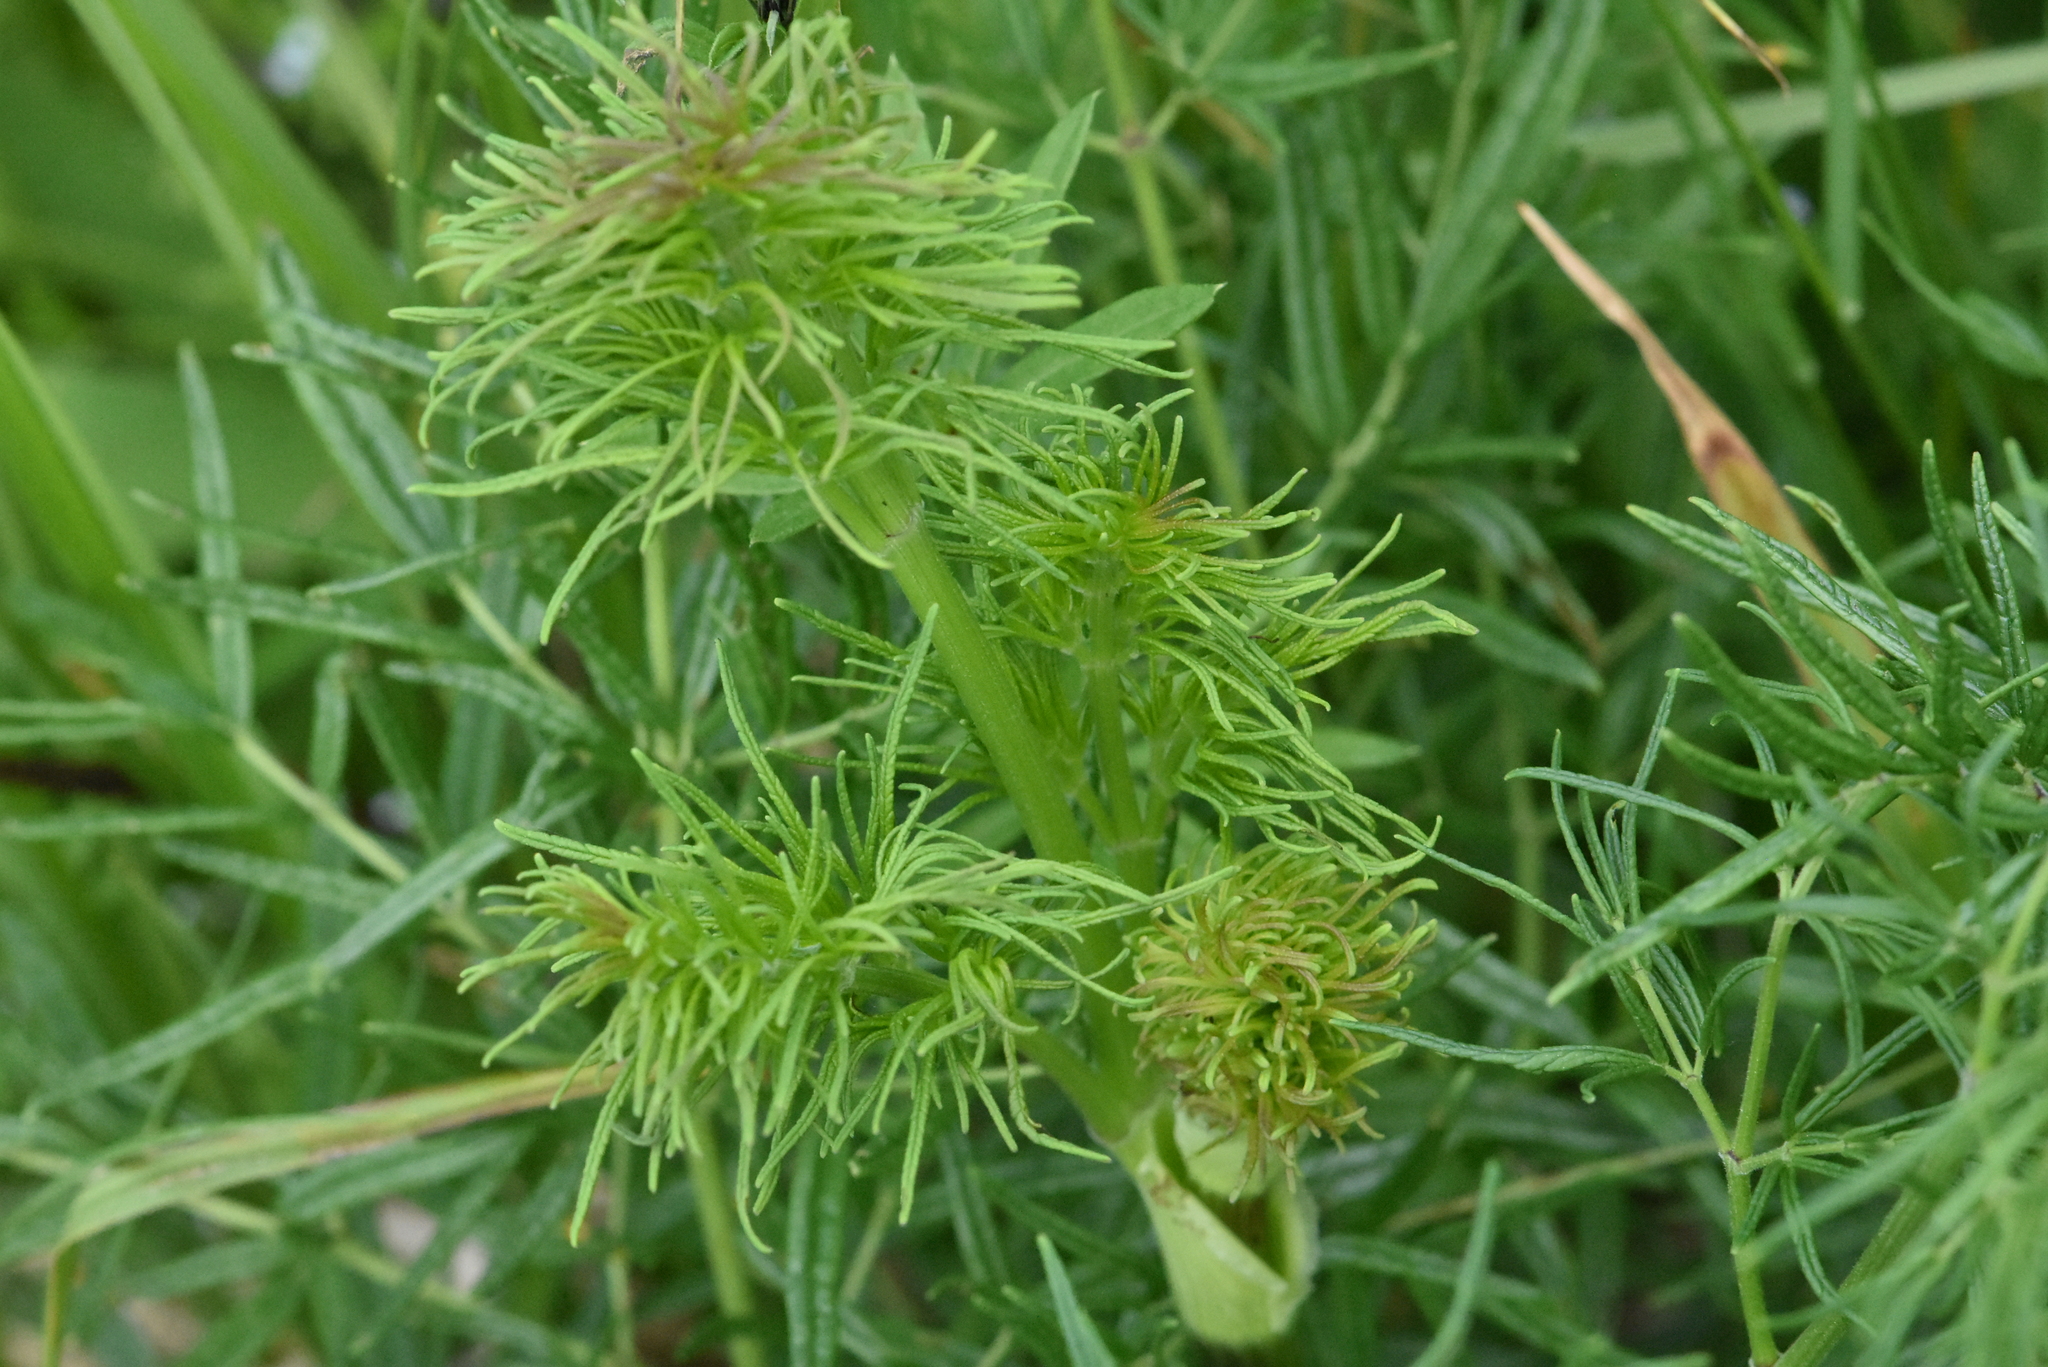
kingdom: Plantae
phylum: Tracheophyta
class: Magnoliopsida
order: Ranunculales
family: Ranunculaceae
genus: Thalictrum
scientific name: Thalictrum lucidum
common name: Shining meadow-rue
